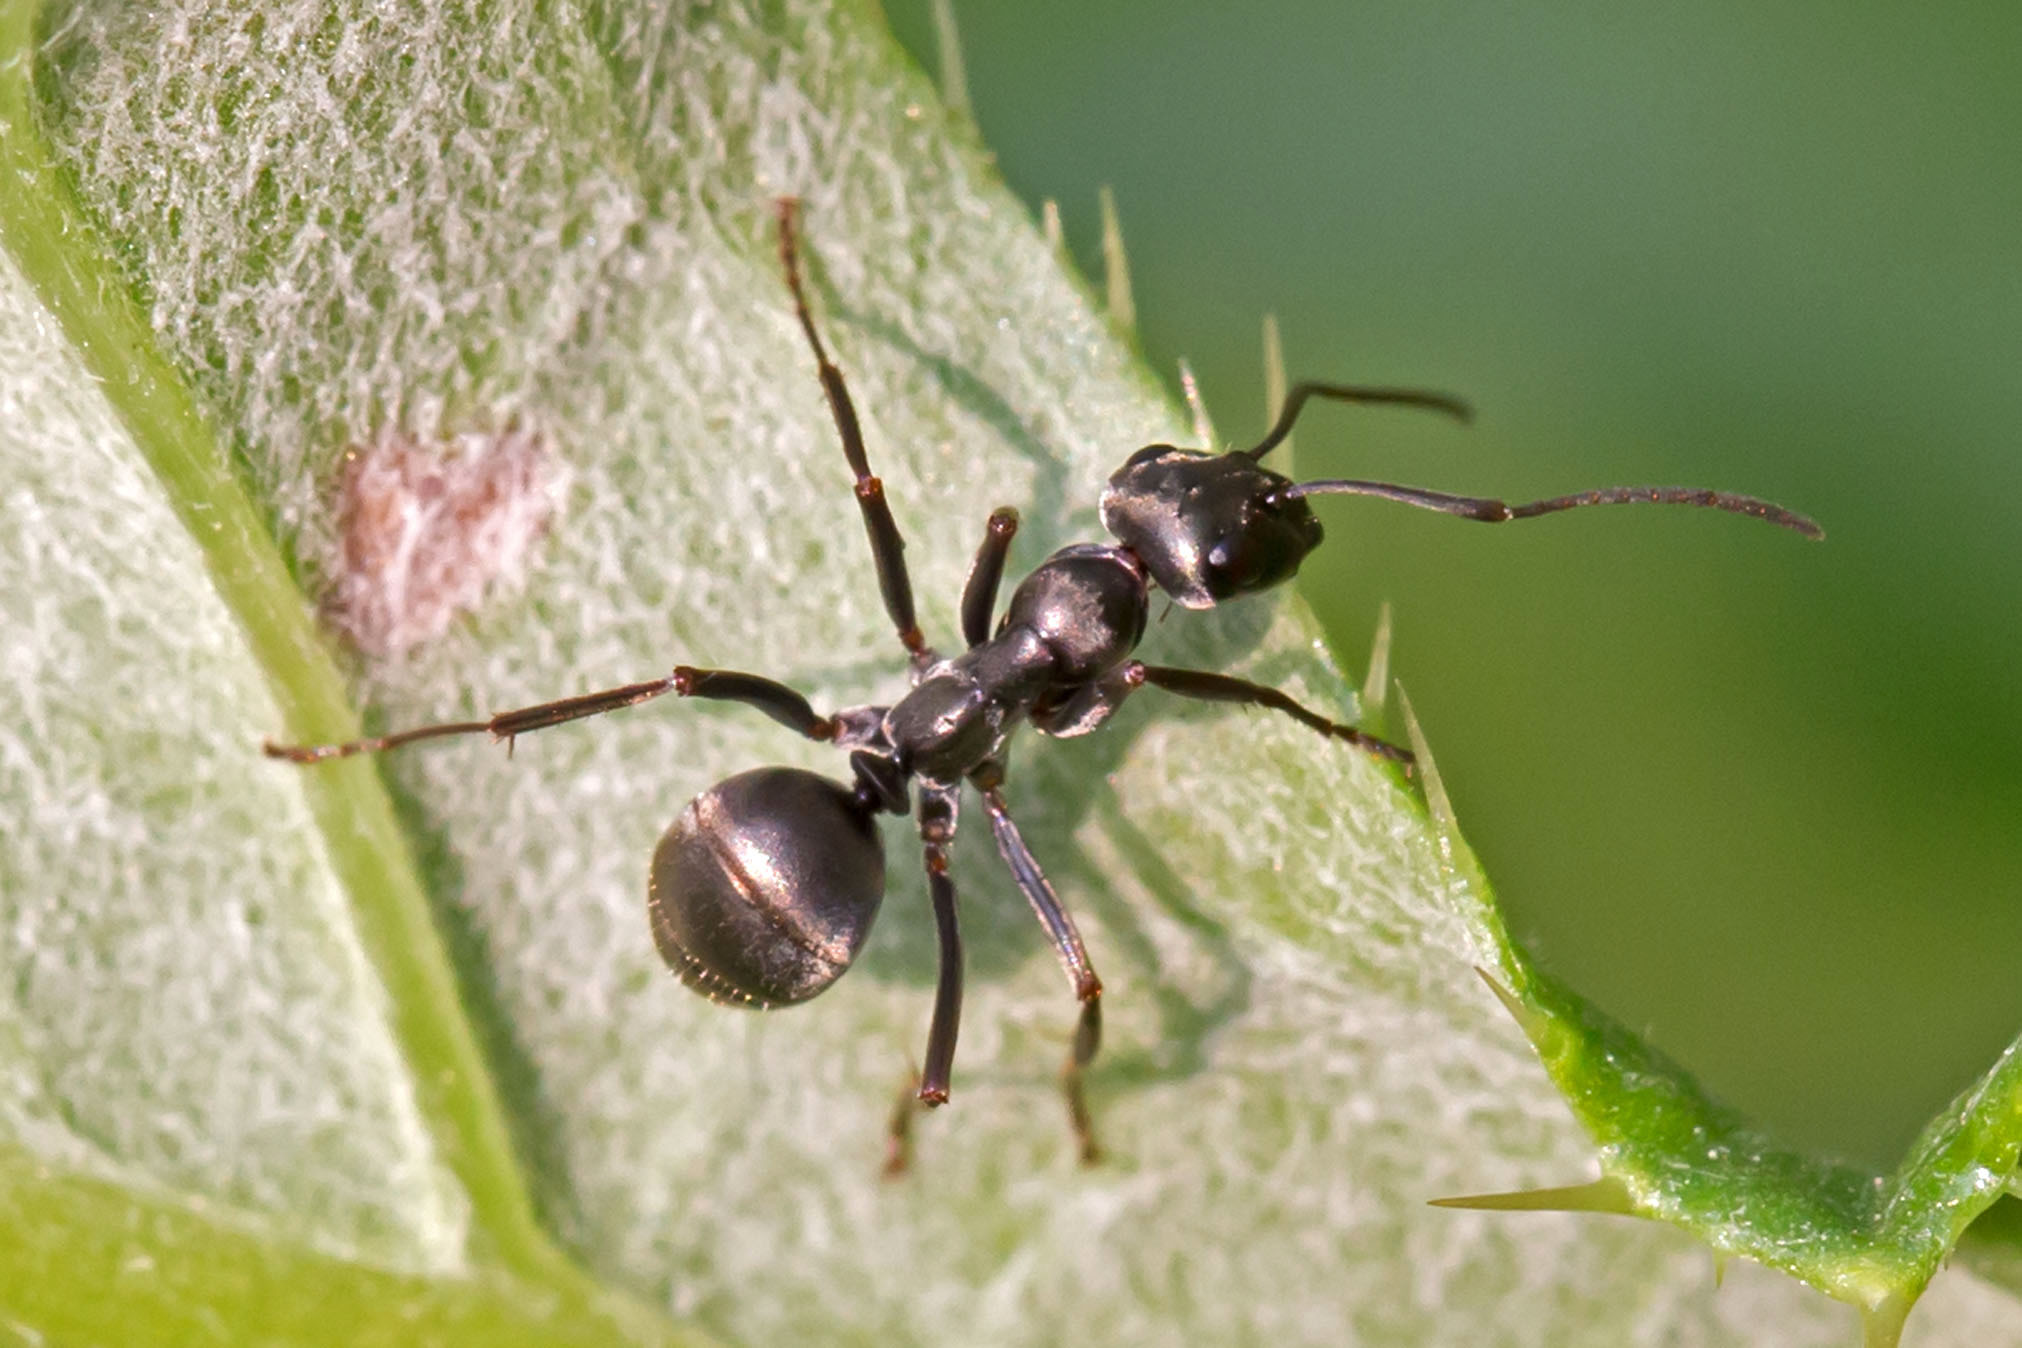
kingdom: Animalia
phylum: Arthropoda
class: Insecta
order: Hymenoptera
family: Formicidae
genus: Formica
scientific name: Formica
